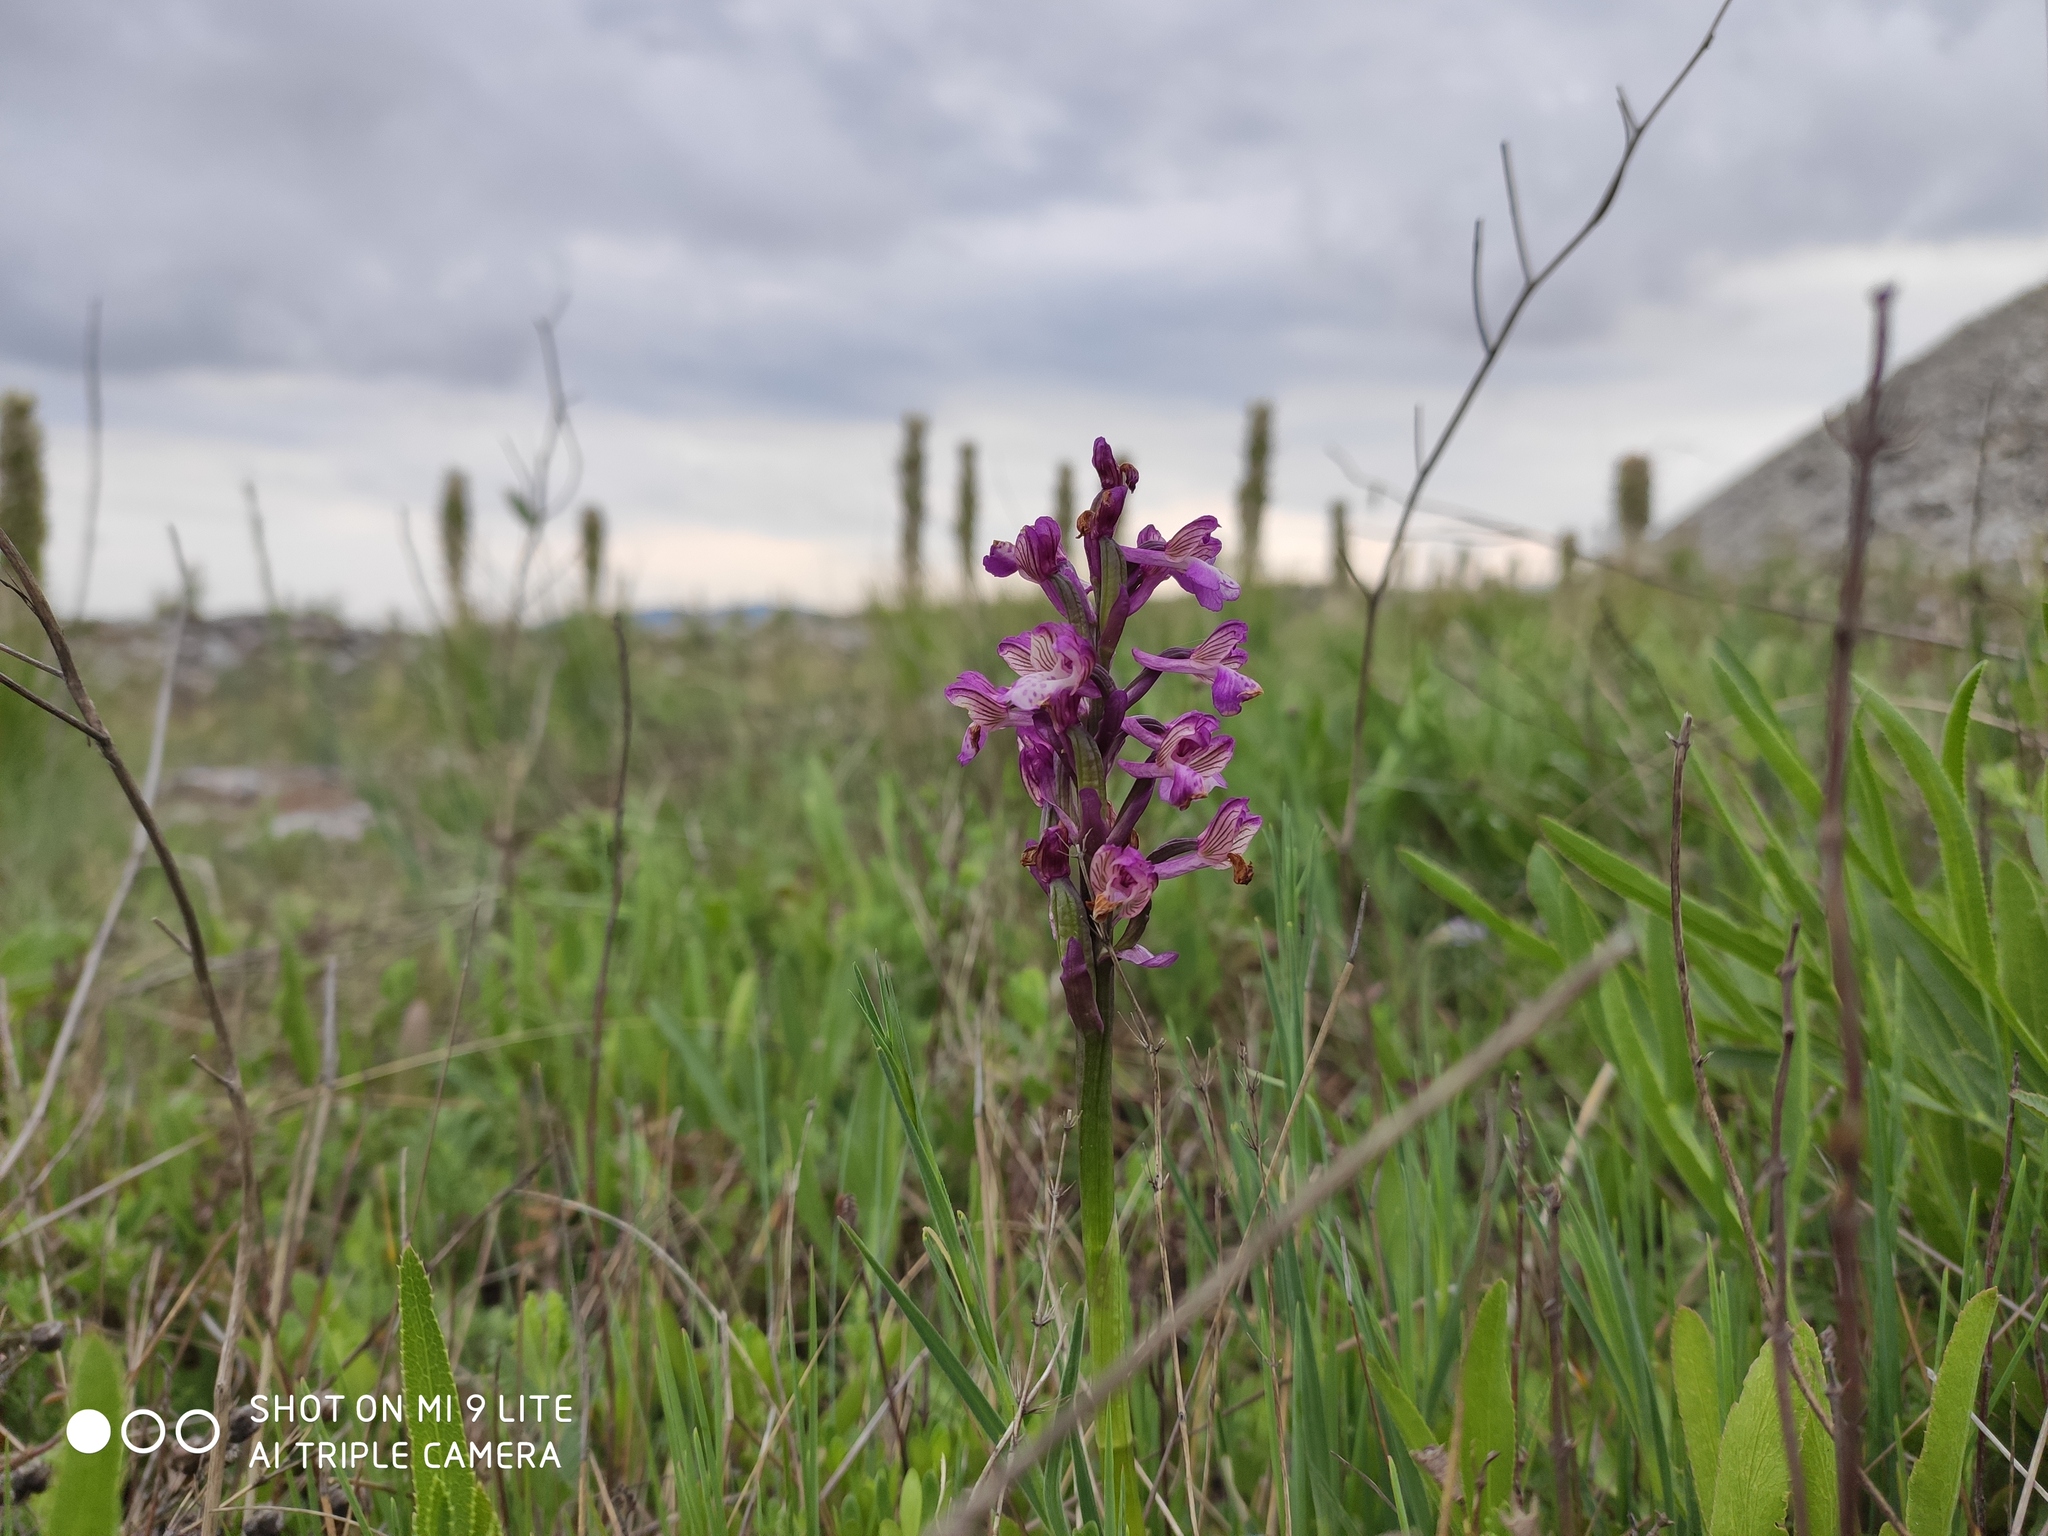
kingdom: Plantae
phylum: Tracheophyta
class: Liliopsida
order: Asparagales
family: Orchidaceae
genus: Anacamptis
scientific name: Anacamptis morio
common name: Green-winged orchid
